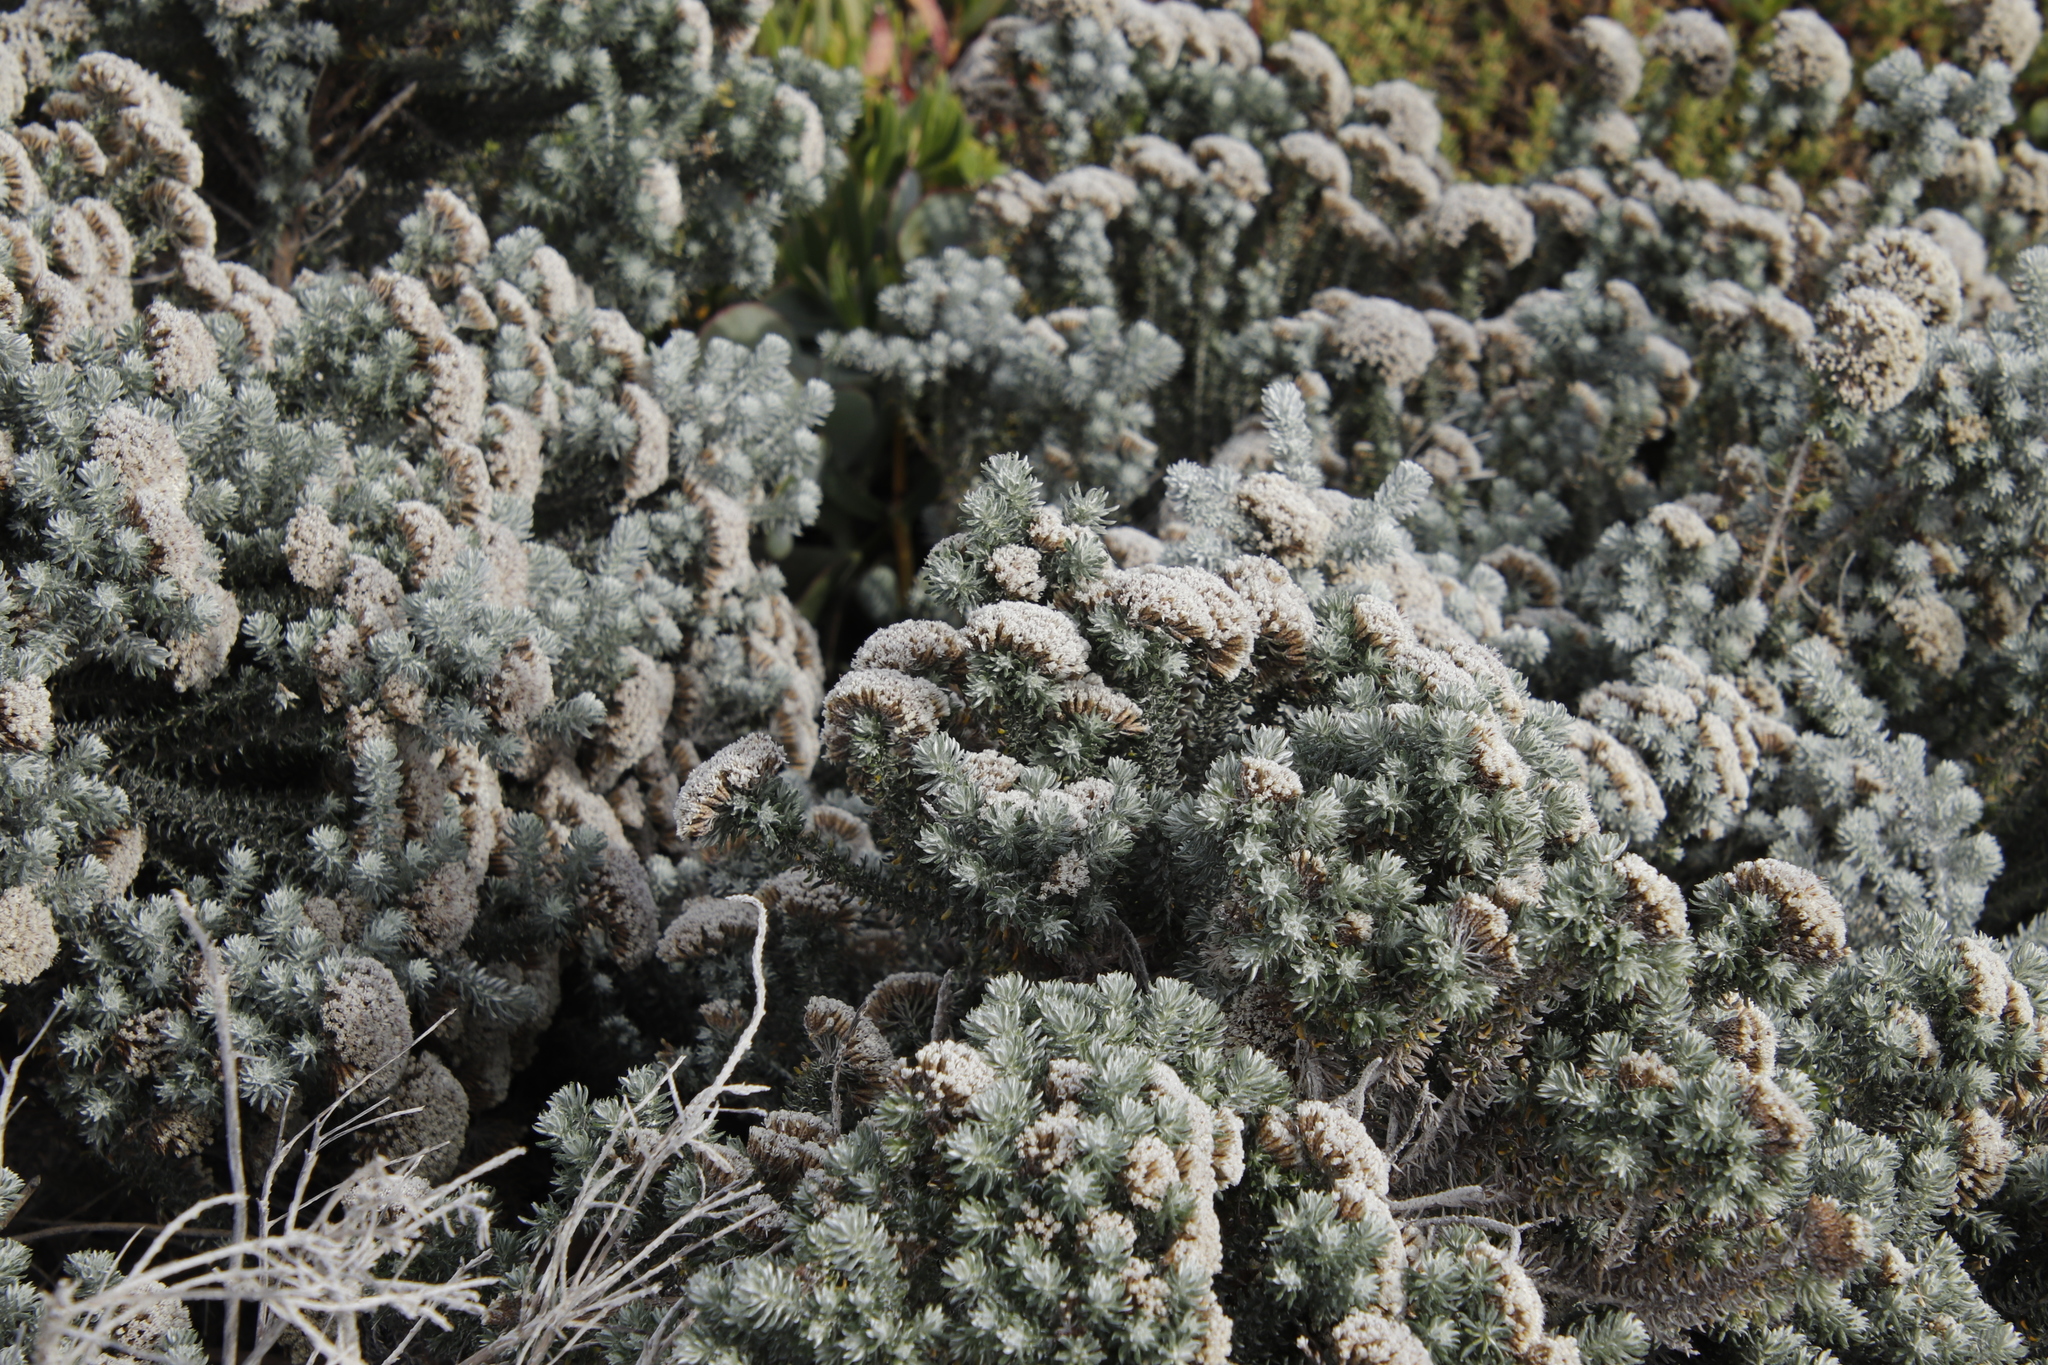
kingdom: Plantae
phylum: Tracheophyta
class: Magnoliopsida
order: Asterales
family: Asteraceae
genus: Metalasia
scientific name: Metalasia muricata
